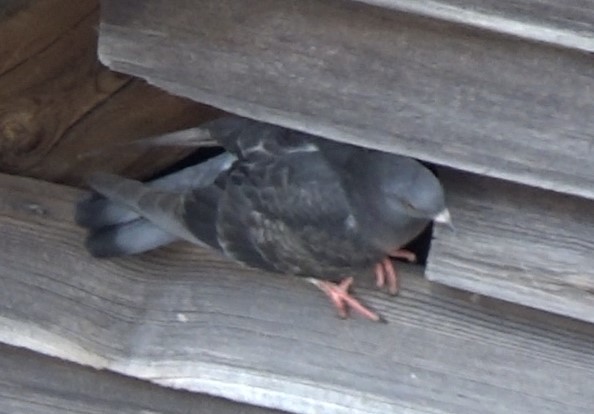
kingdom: Animalia
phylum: Chordata
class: Aves
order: Columbiformes
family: Columbidae
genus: Columba
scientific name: Columba livia
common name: Rock pigeon
